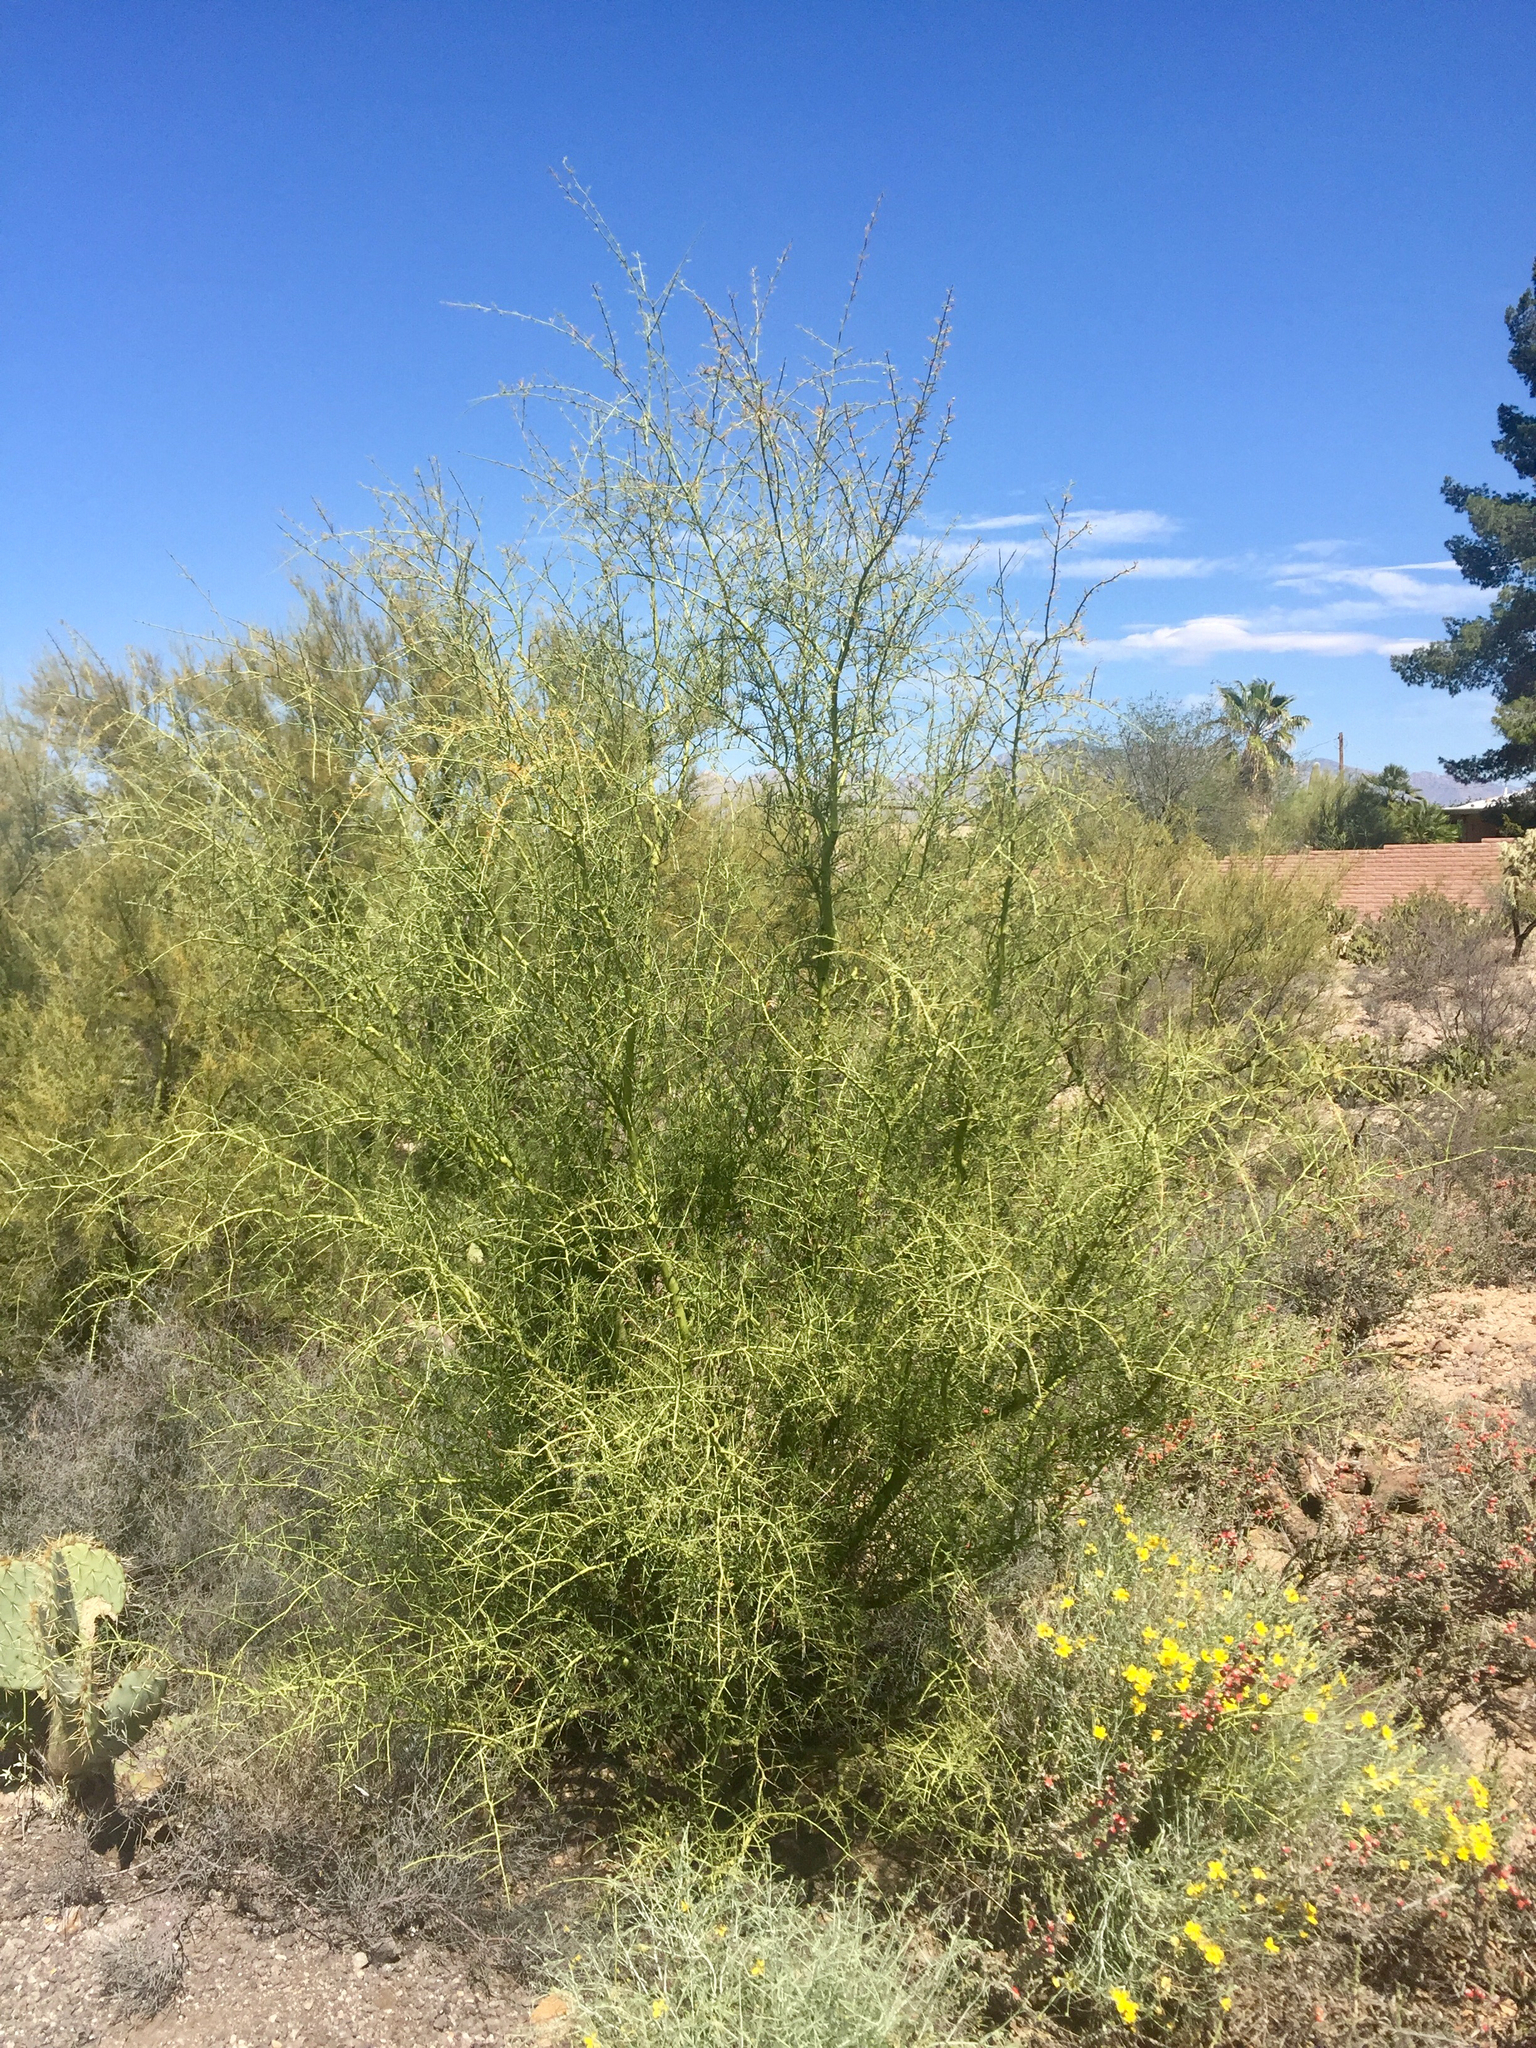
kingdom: Plantae
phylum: Tracheophyta
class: Magnoliopsida
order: Fabales
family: Fabaceae
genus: Parkinsonia
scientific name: Parkinsonia microphylla
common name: Yellow paloverde
